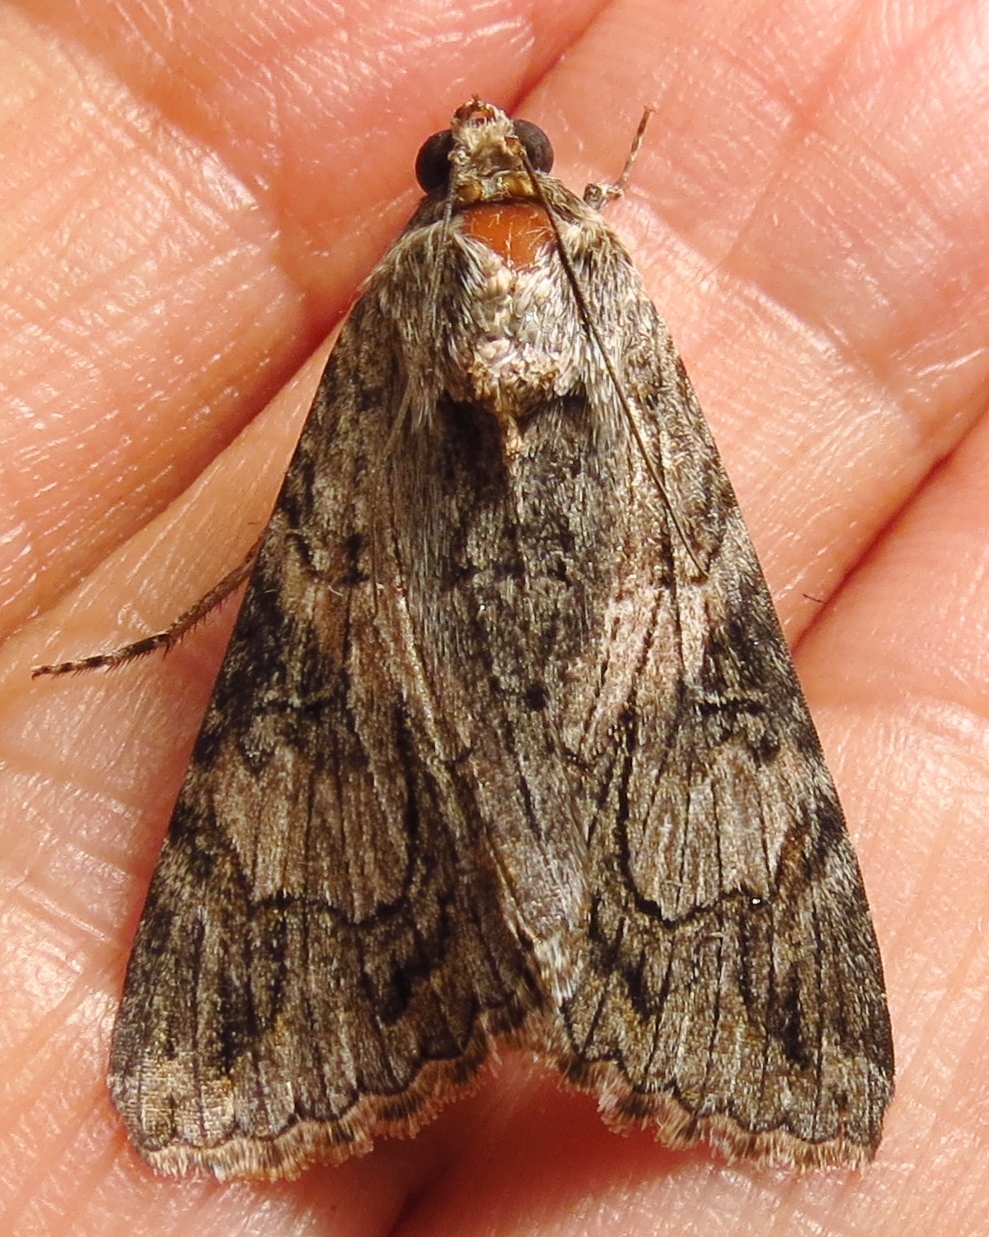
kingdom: Animalia
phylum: Arthropoda
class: Insecta
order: Lepidoptera
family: Erebidae
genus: Melipotis
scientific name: Melipotis jucunda
